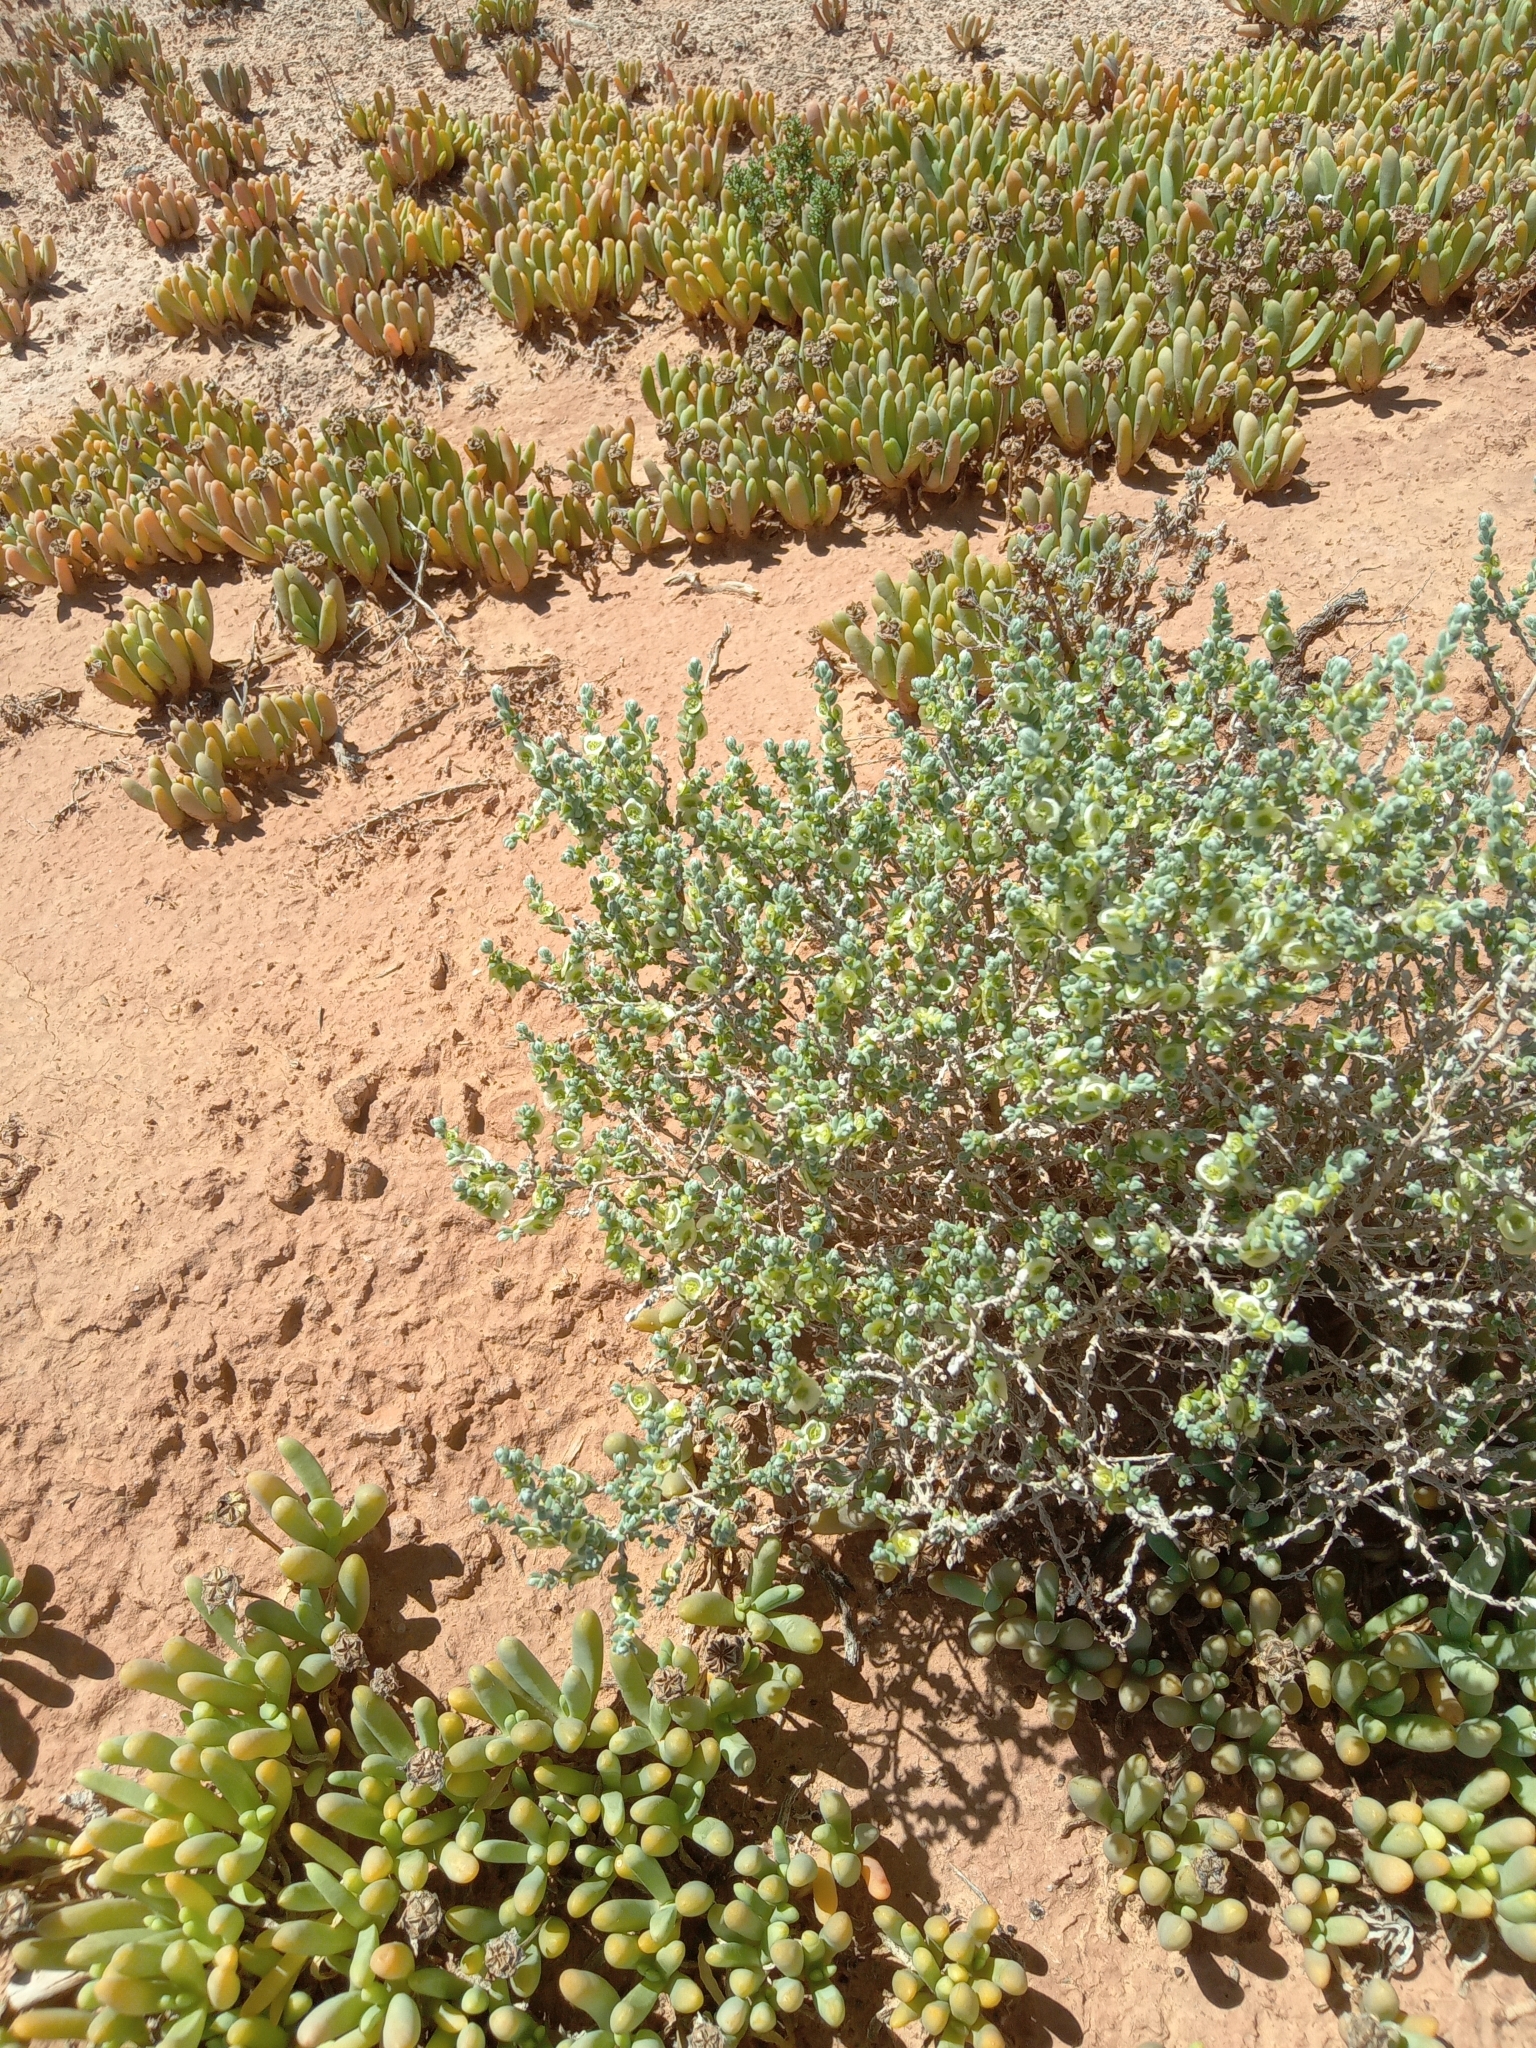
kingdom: Plantae
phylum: Tracheophyta
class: Magnoliopsida
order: Caryophyllales
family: Amaranthaceae
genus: Maireana
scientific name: Maireana radiata
